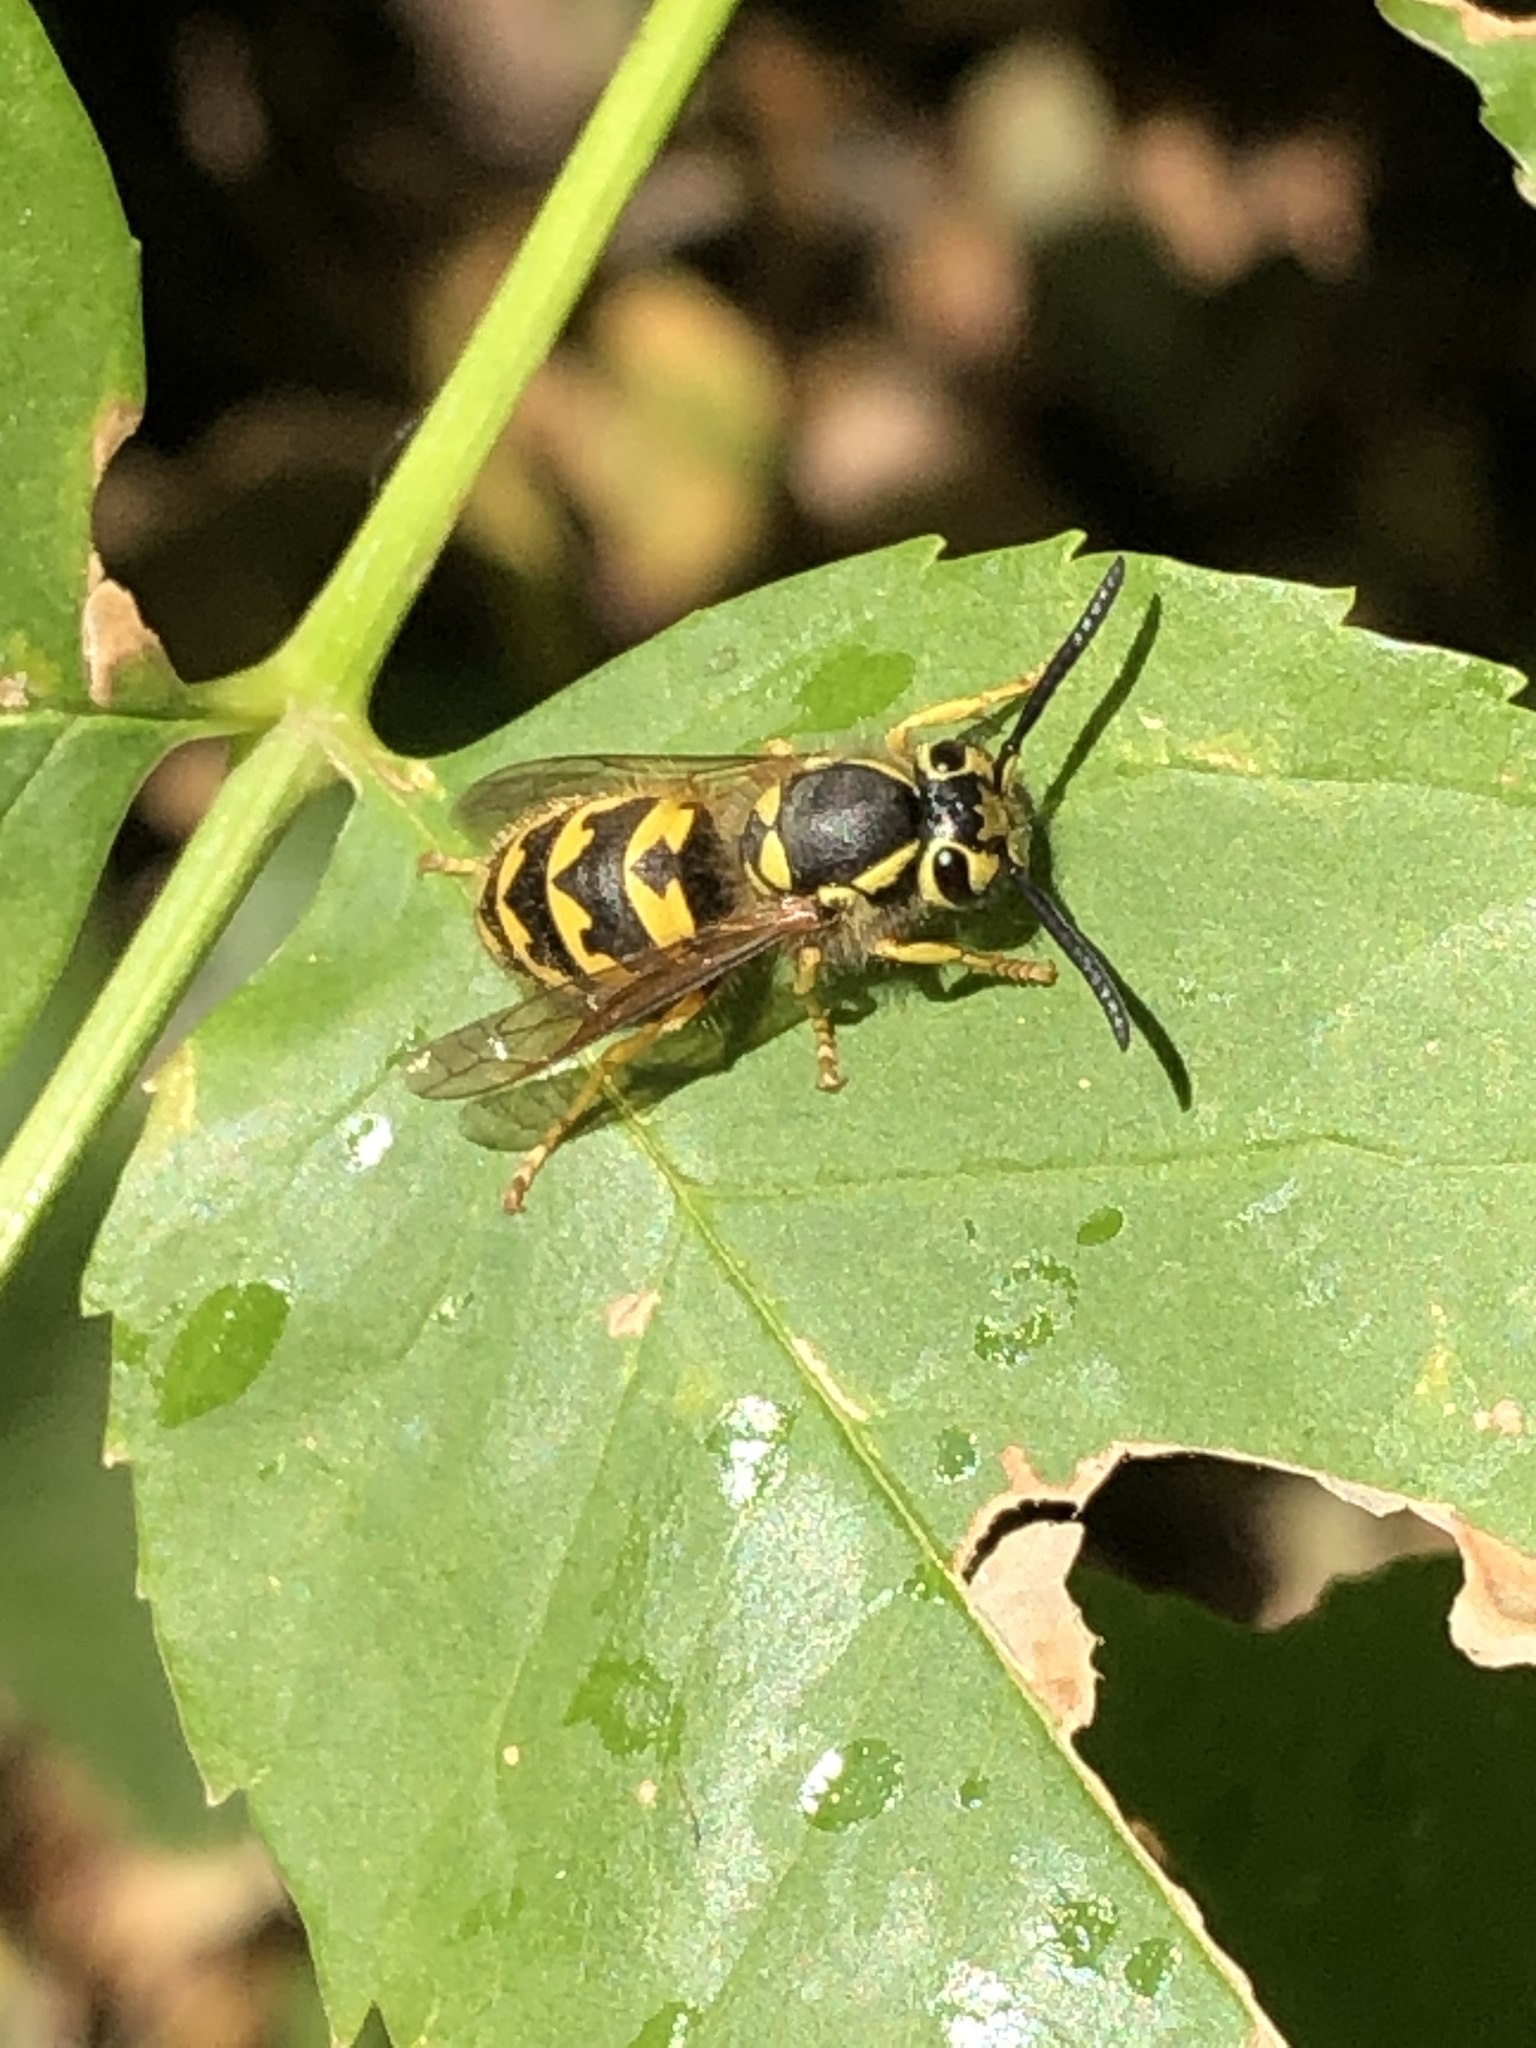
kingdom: Animalia
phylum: Arthropoda
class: Insecta
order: Hymenoptera
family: Vespidae
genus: Vespula
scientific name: Vespula pensylvanica
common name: Western yellowjacket
